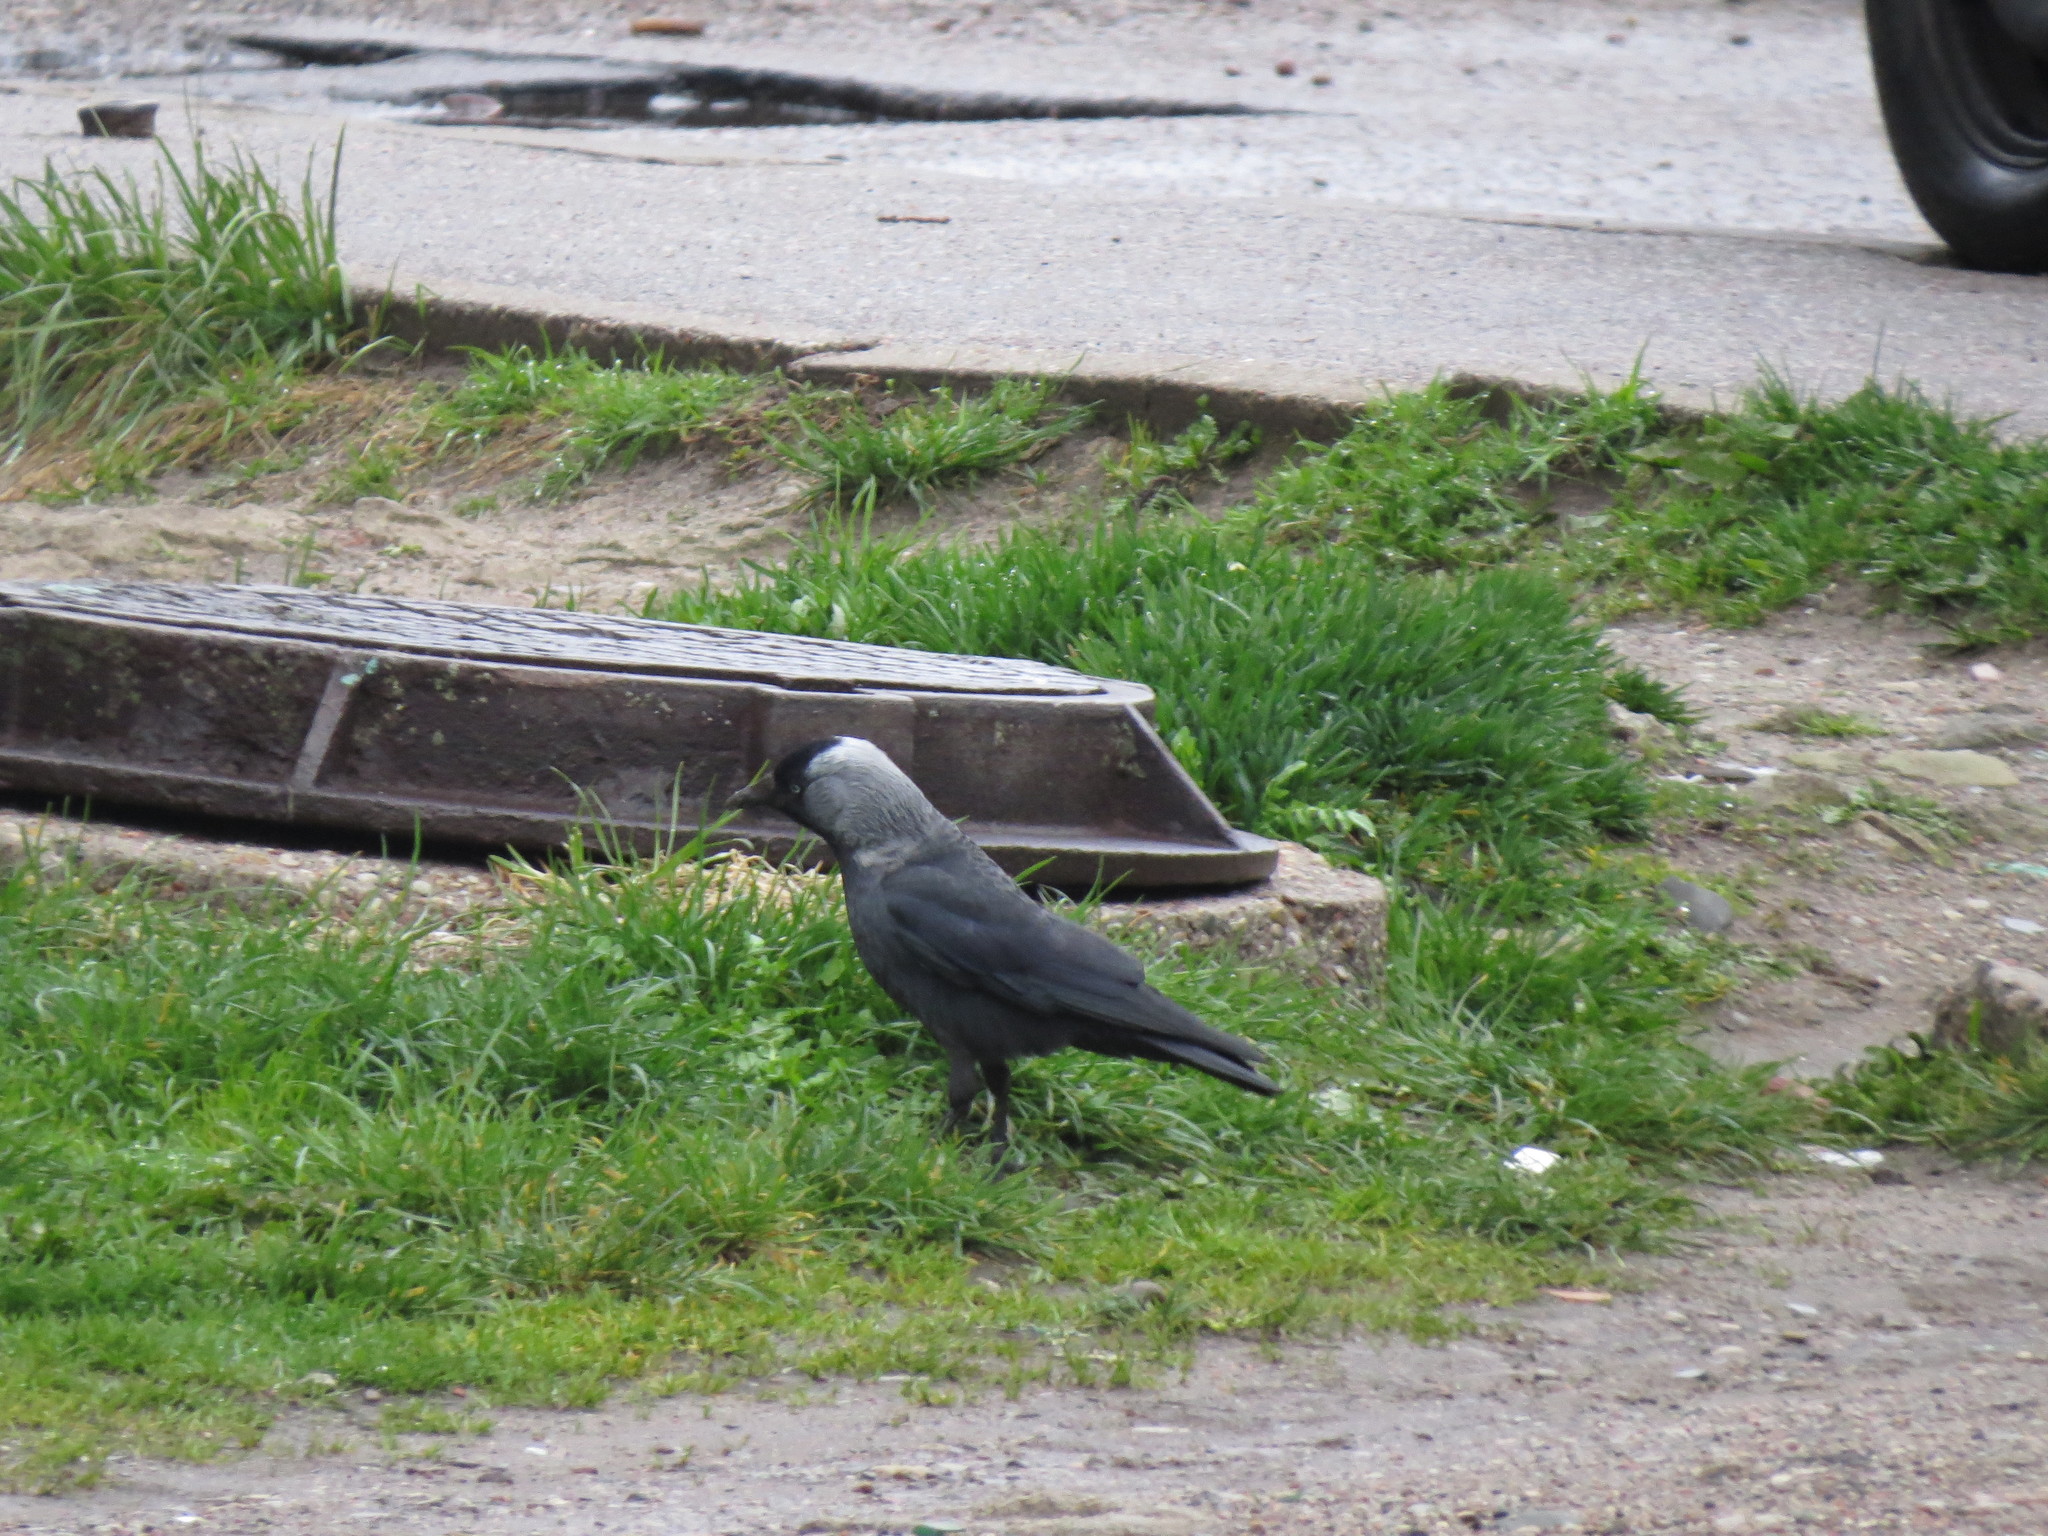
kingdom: Animalia
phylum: Chordata
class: Aves
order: Passeriformes
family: Corvidae
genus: Coloeus
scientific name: Coloeus monedula
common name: Western jackdaw
